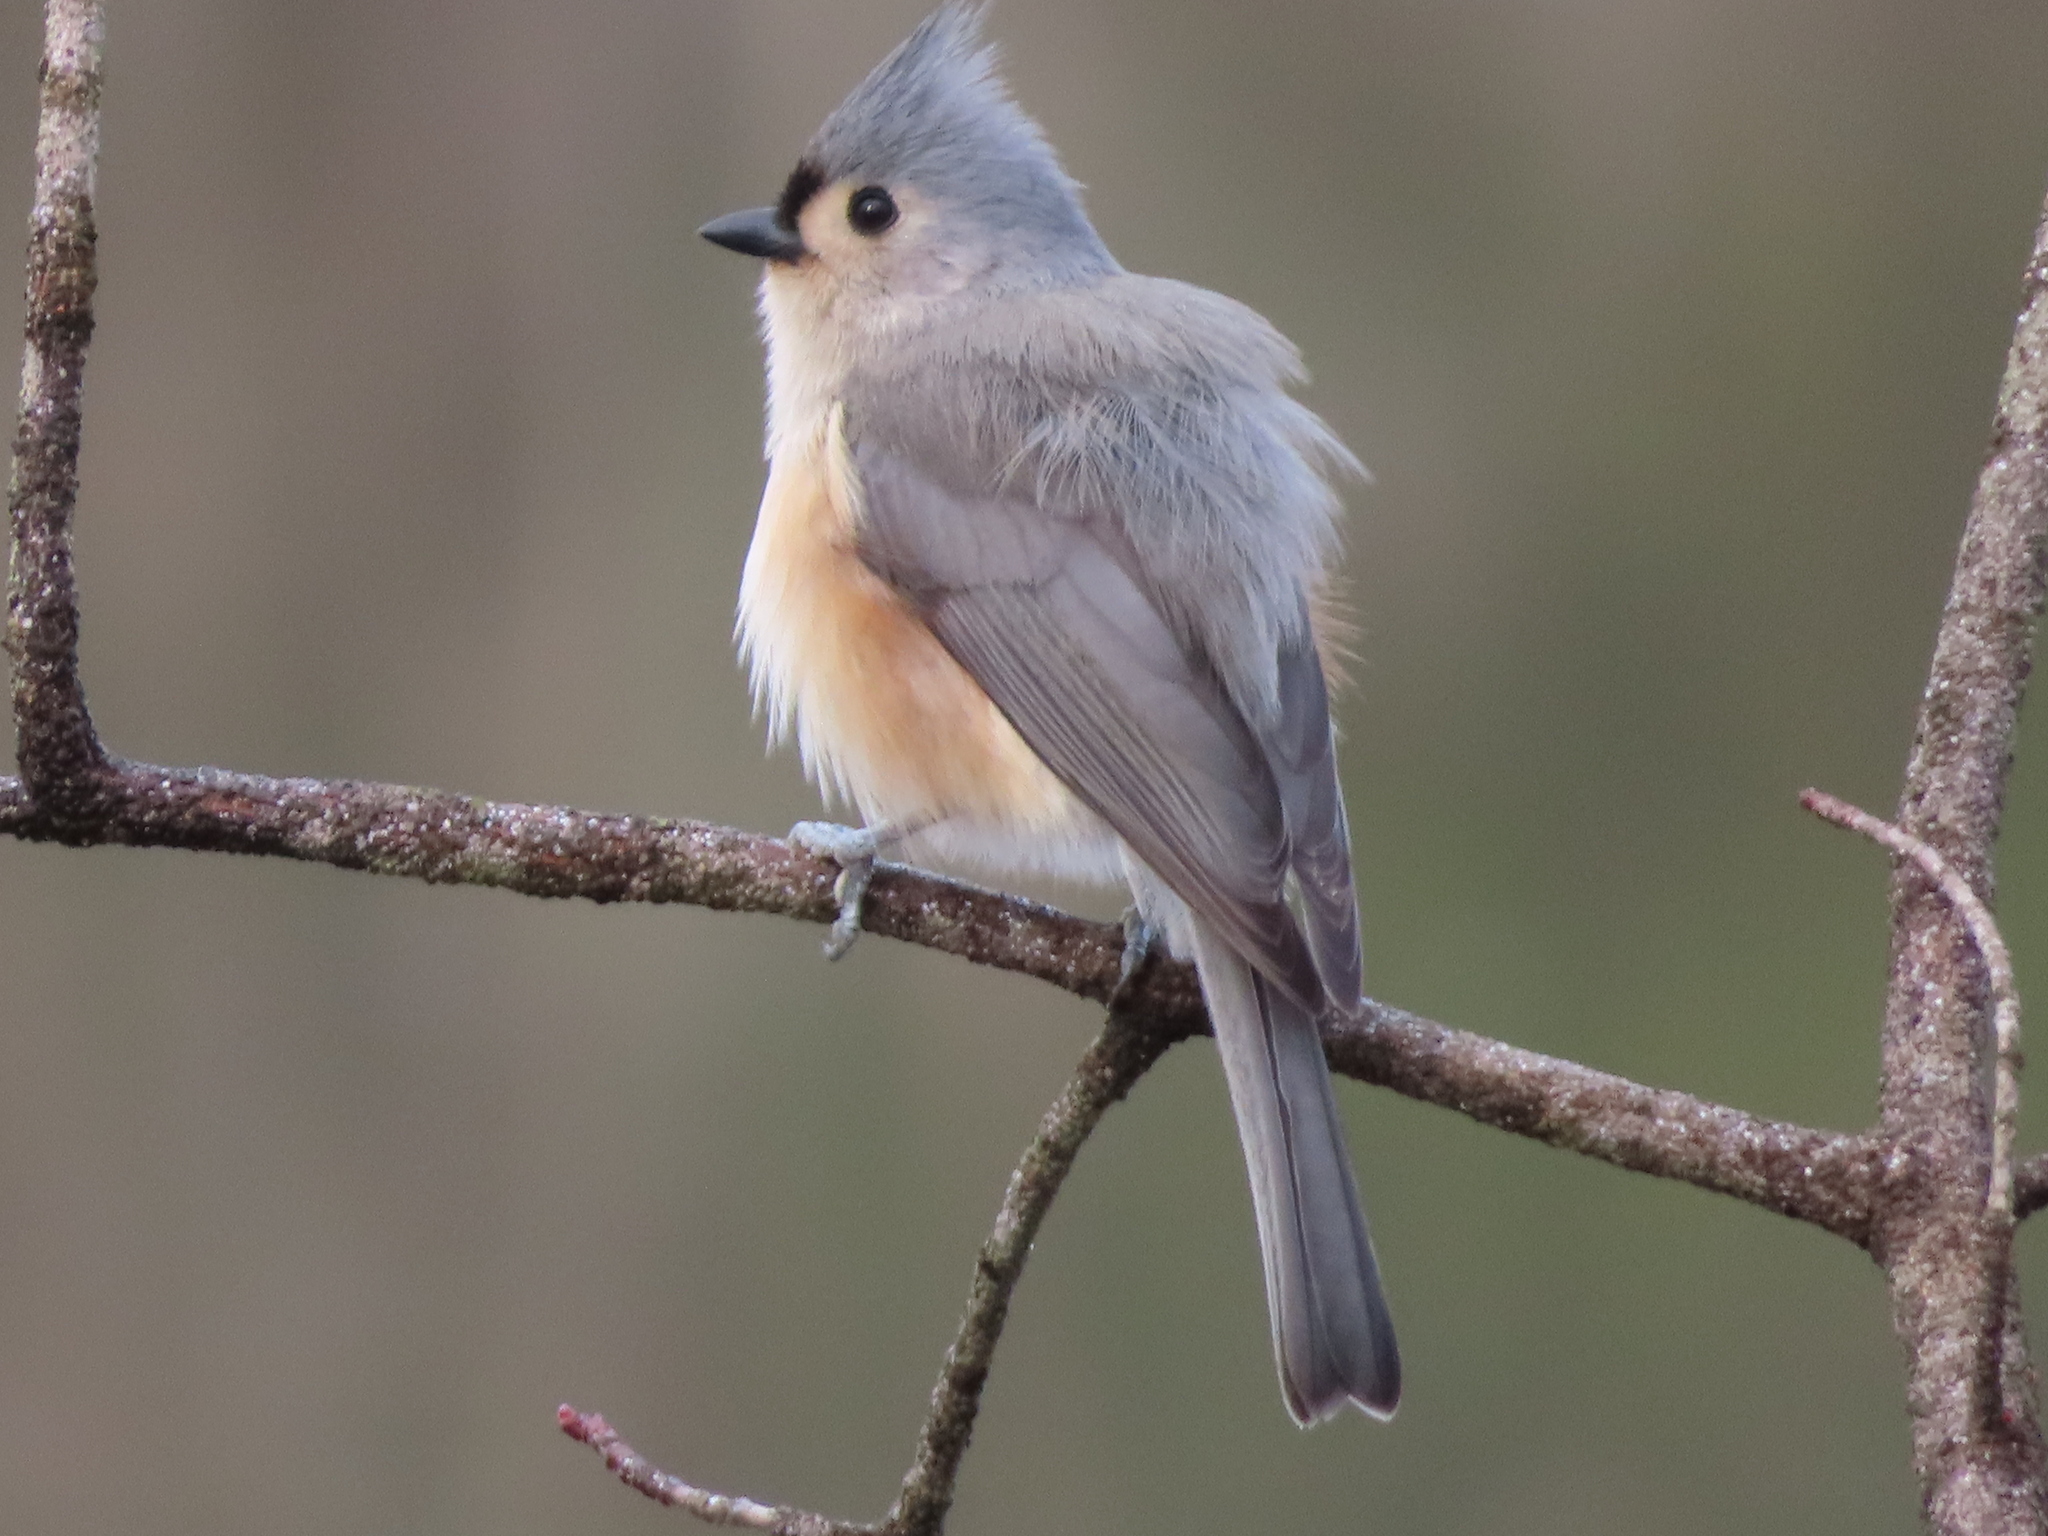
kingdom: Animalia
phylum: Chordata
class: Aves
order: Passeriformes
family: Paridae
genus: Baeolophus
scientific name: Baeolophus bicolor
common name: Tufted titmouse
